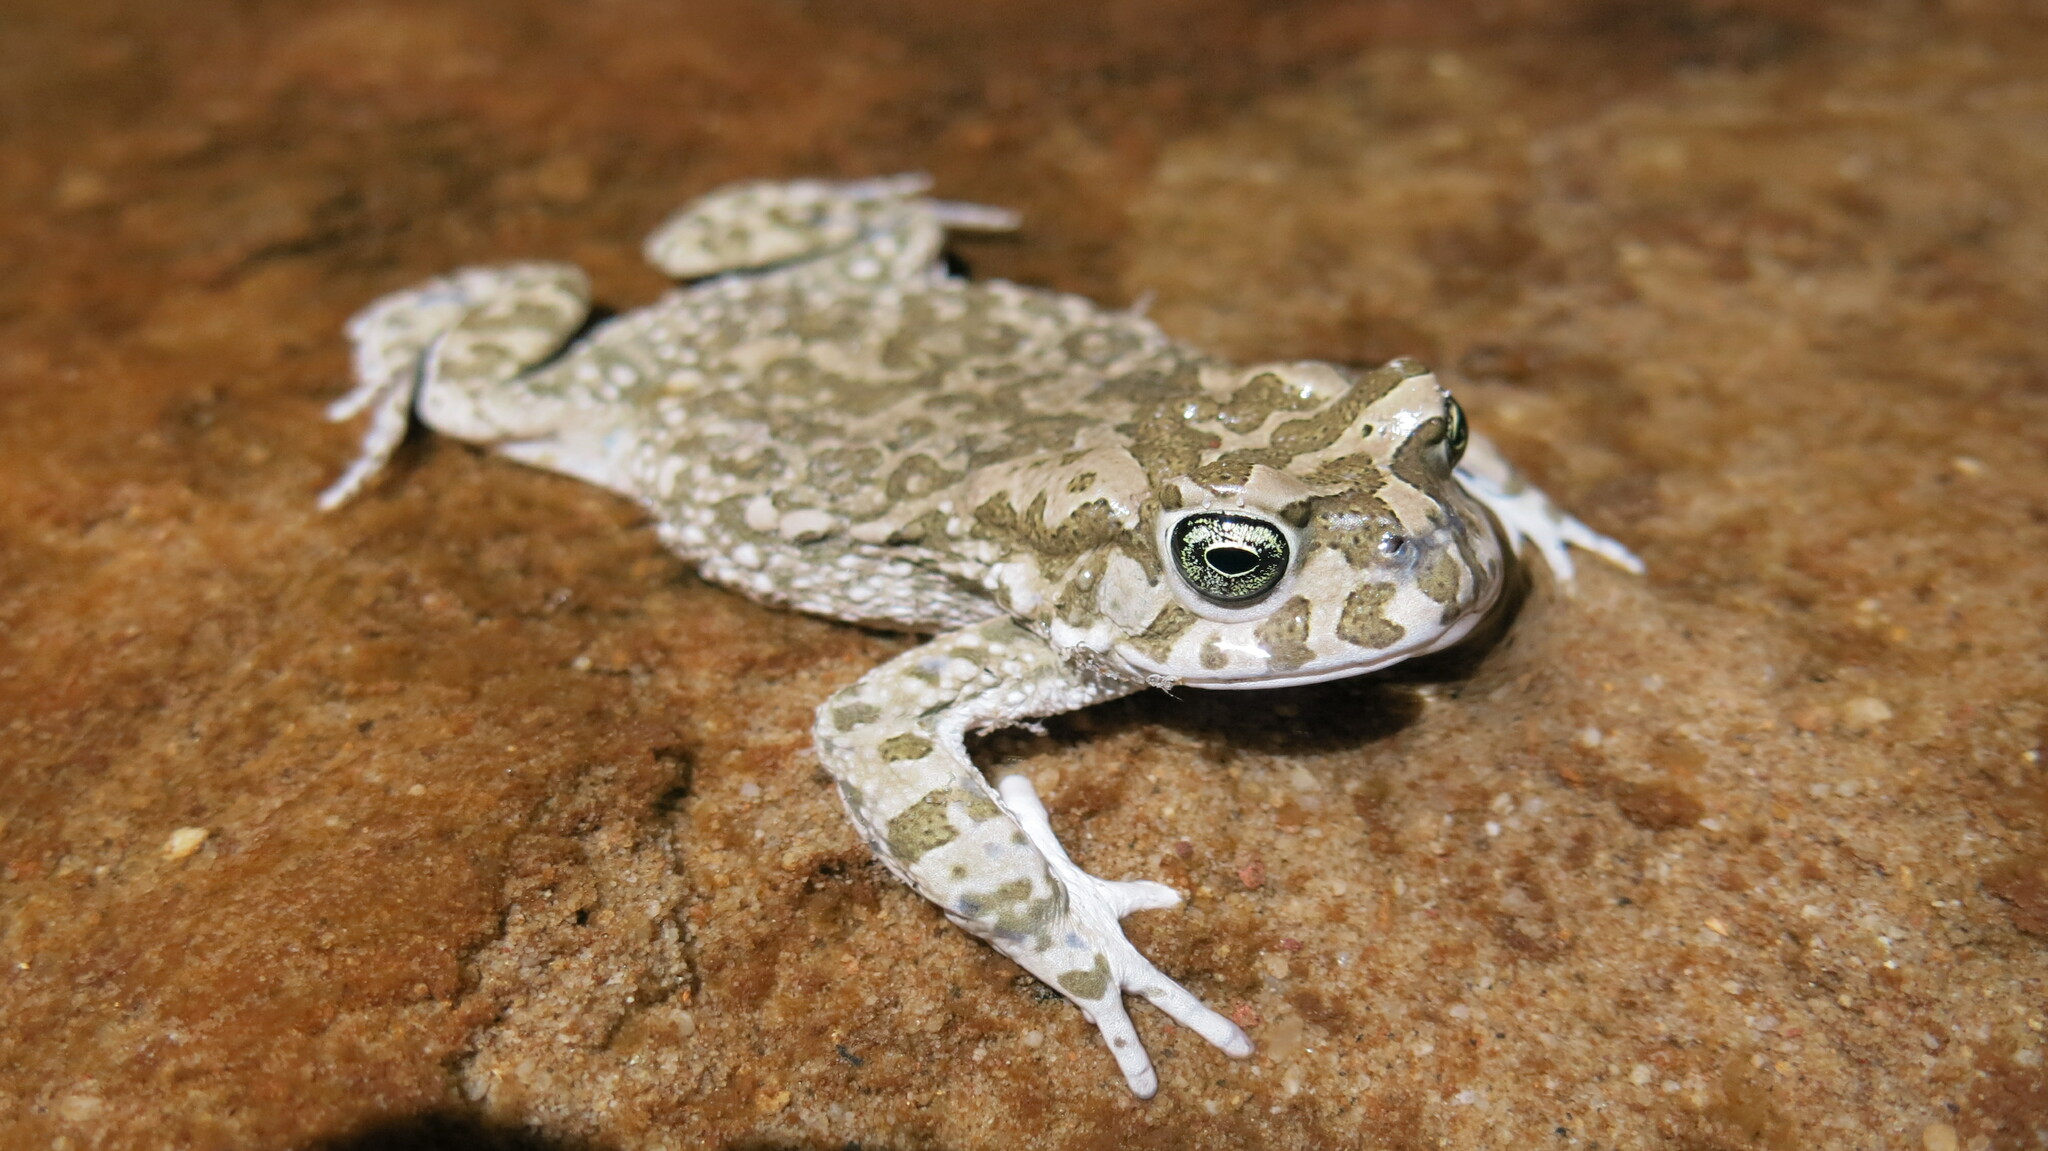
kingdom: Animalia
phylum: Chordata
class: Amphibia
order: Anura
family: Bufonidae
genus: Vandijkophrynus
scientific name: Vandijkophrynus gariepensis
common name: Gariep toad
